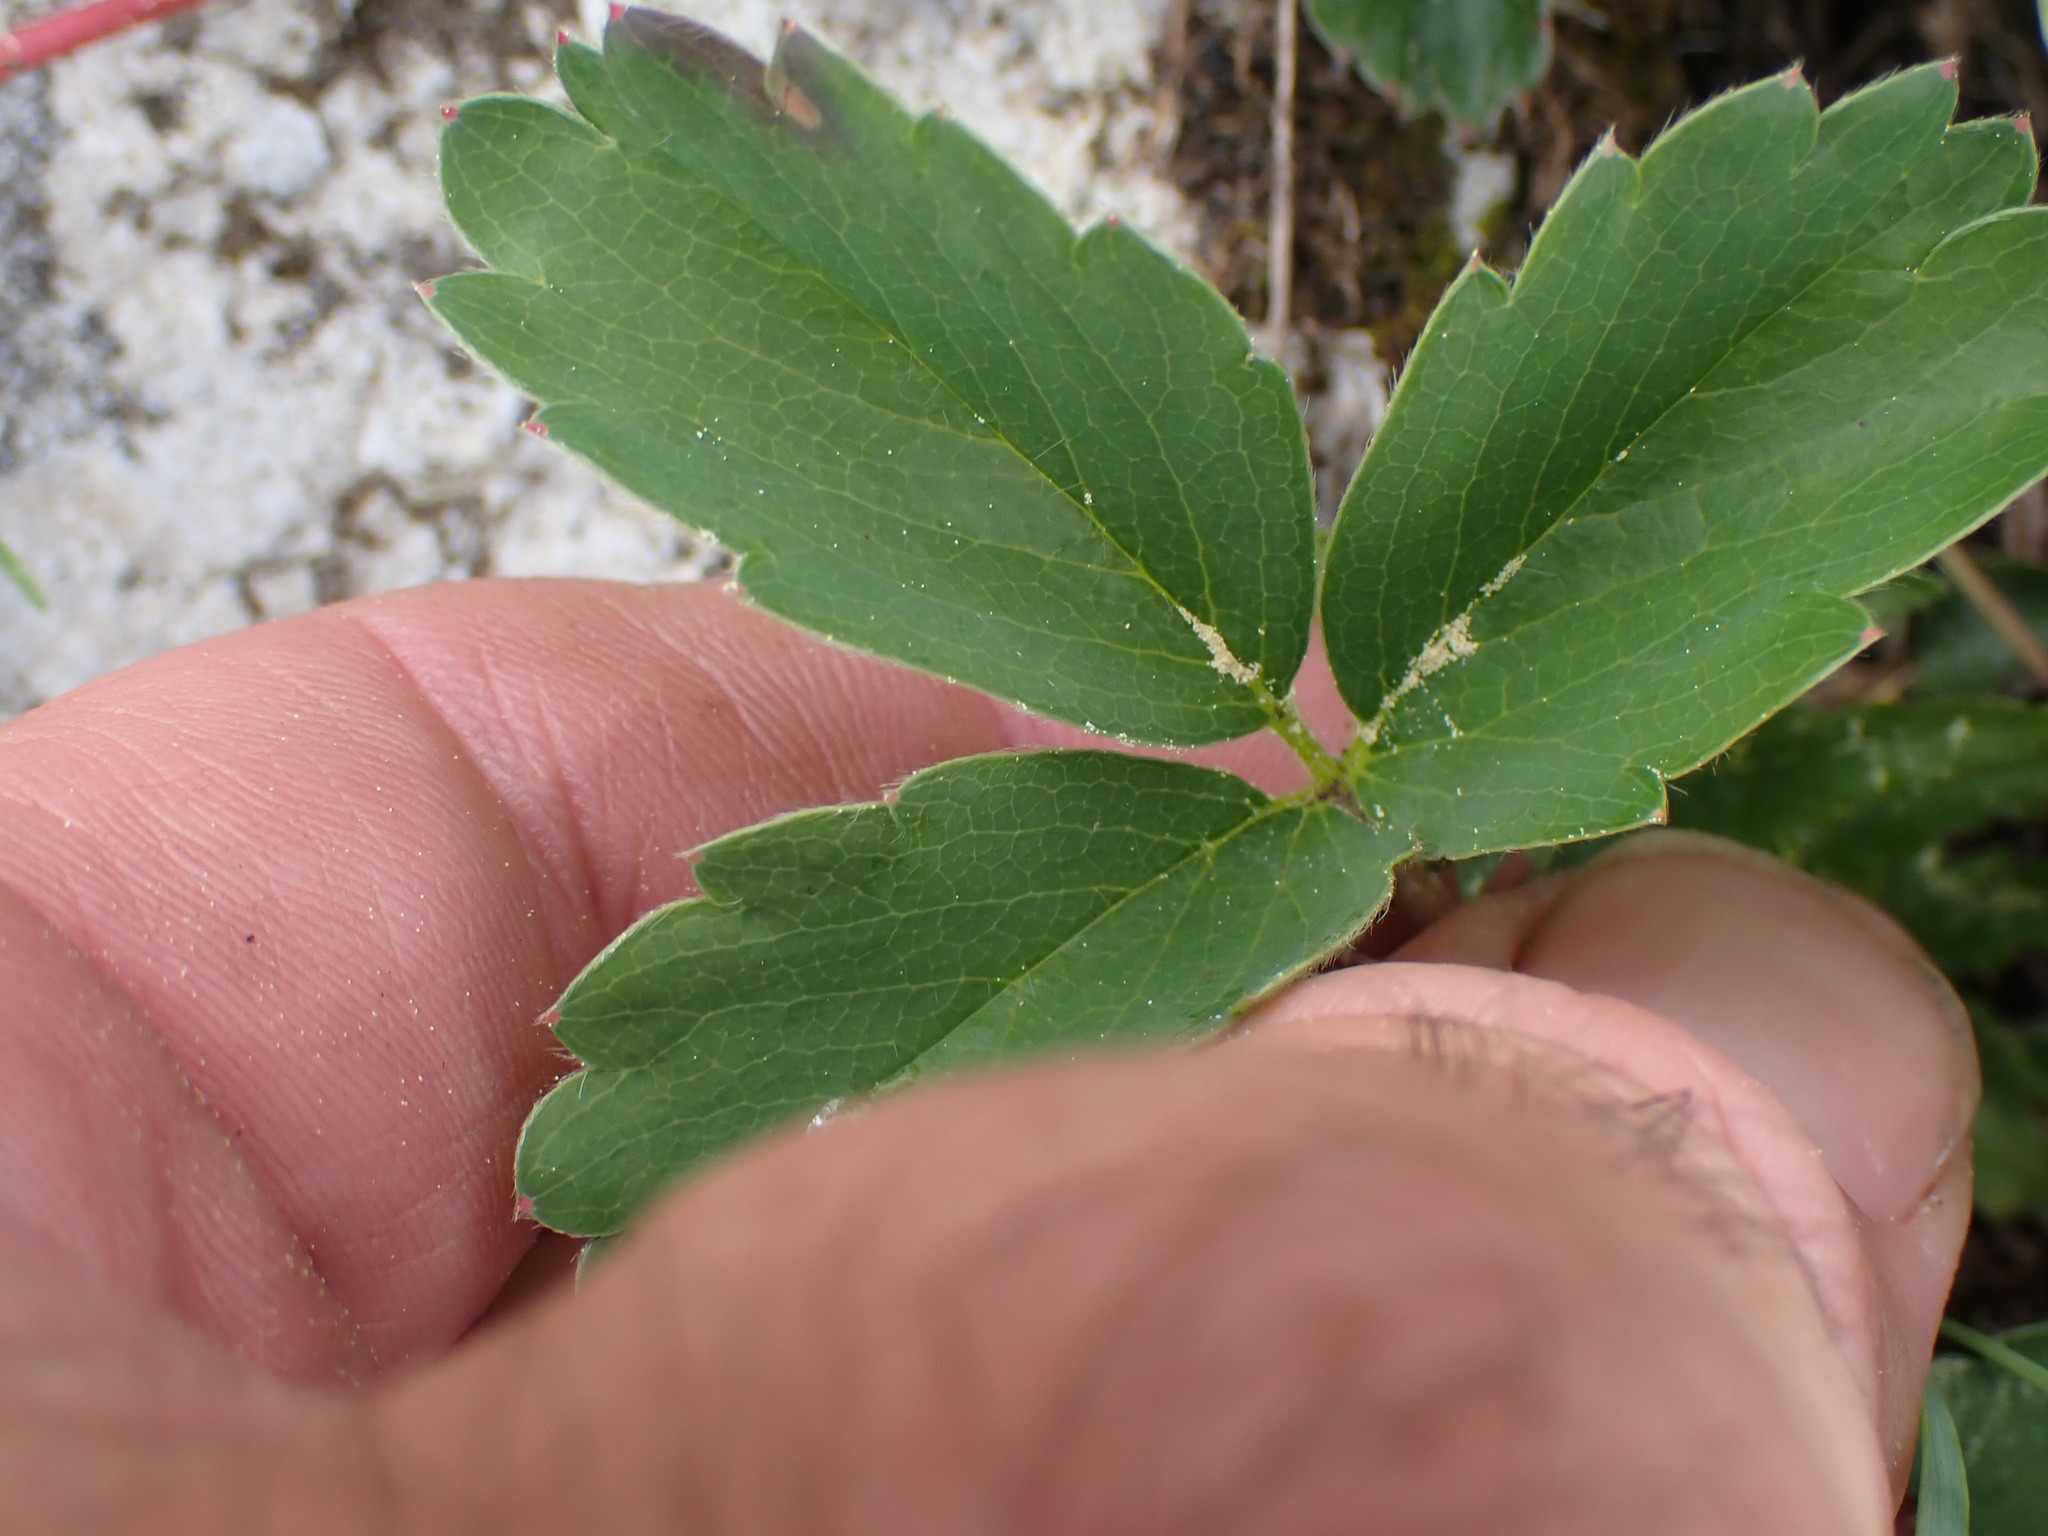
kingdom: Plantae
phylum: Tracheophyta
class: Magnoliopsida
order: Rosales
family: Rosaceae
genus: Fragaria
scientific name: Fragaria virginiana
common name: Thickleaved wild strawberry
